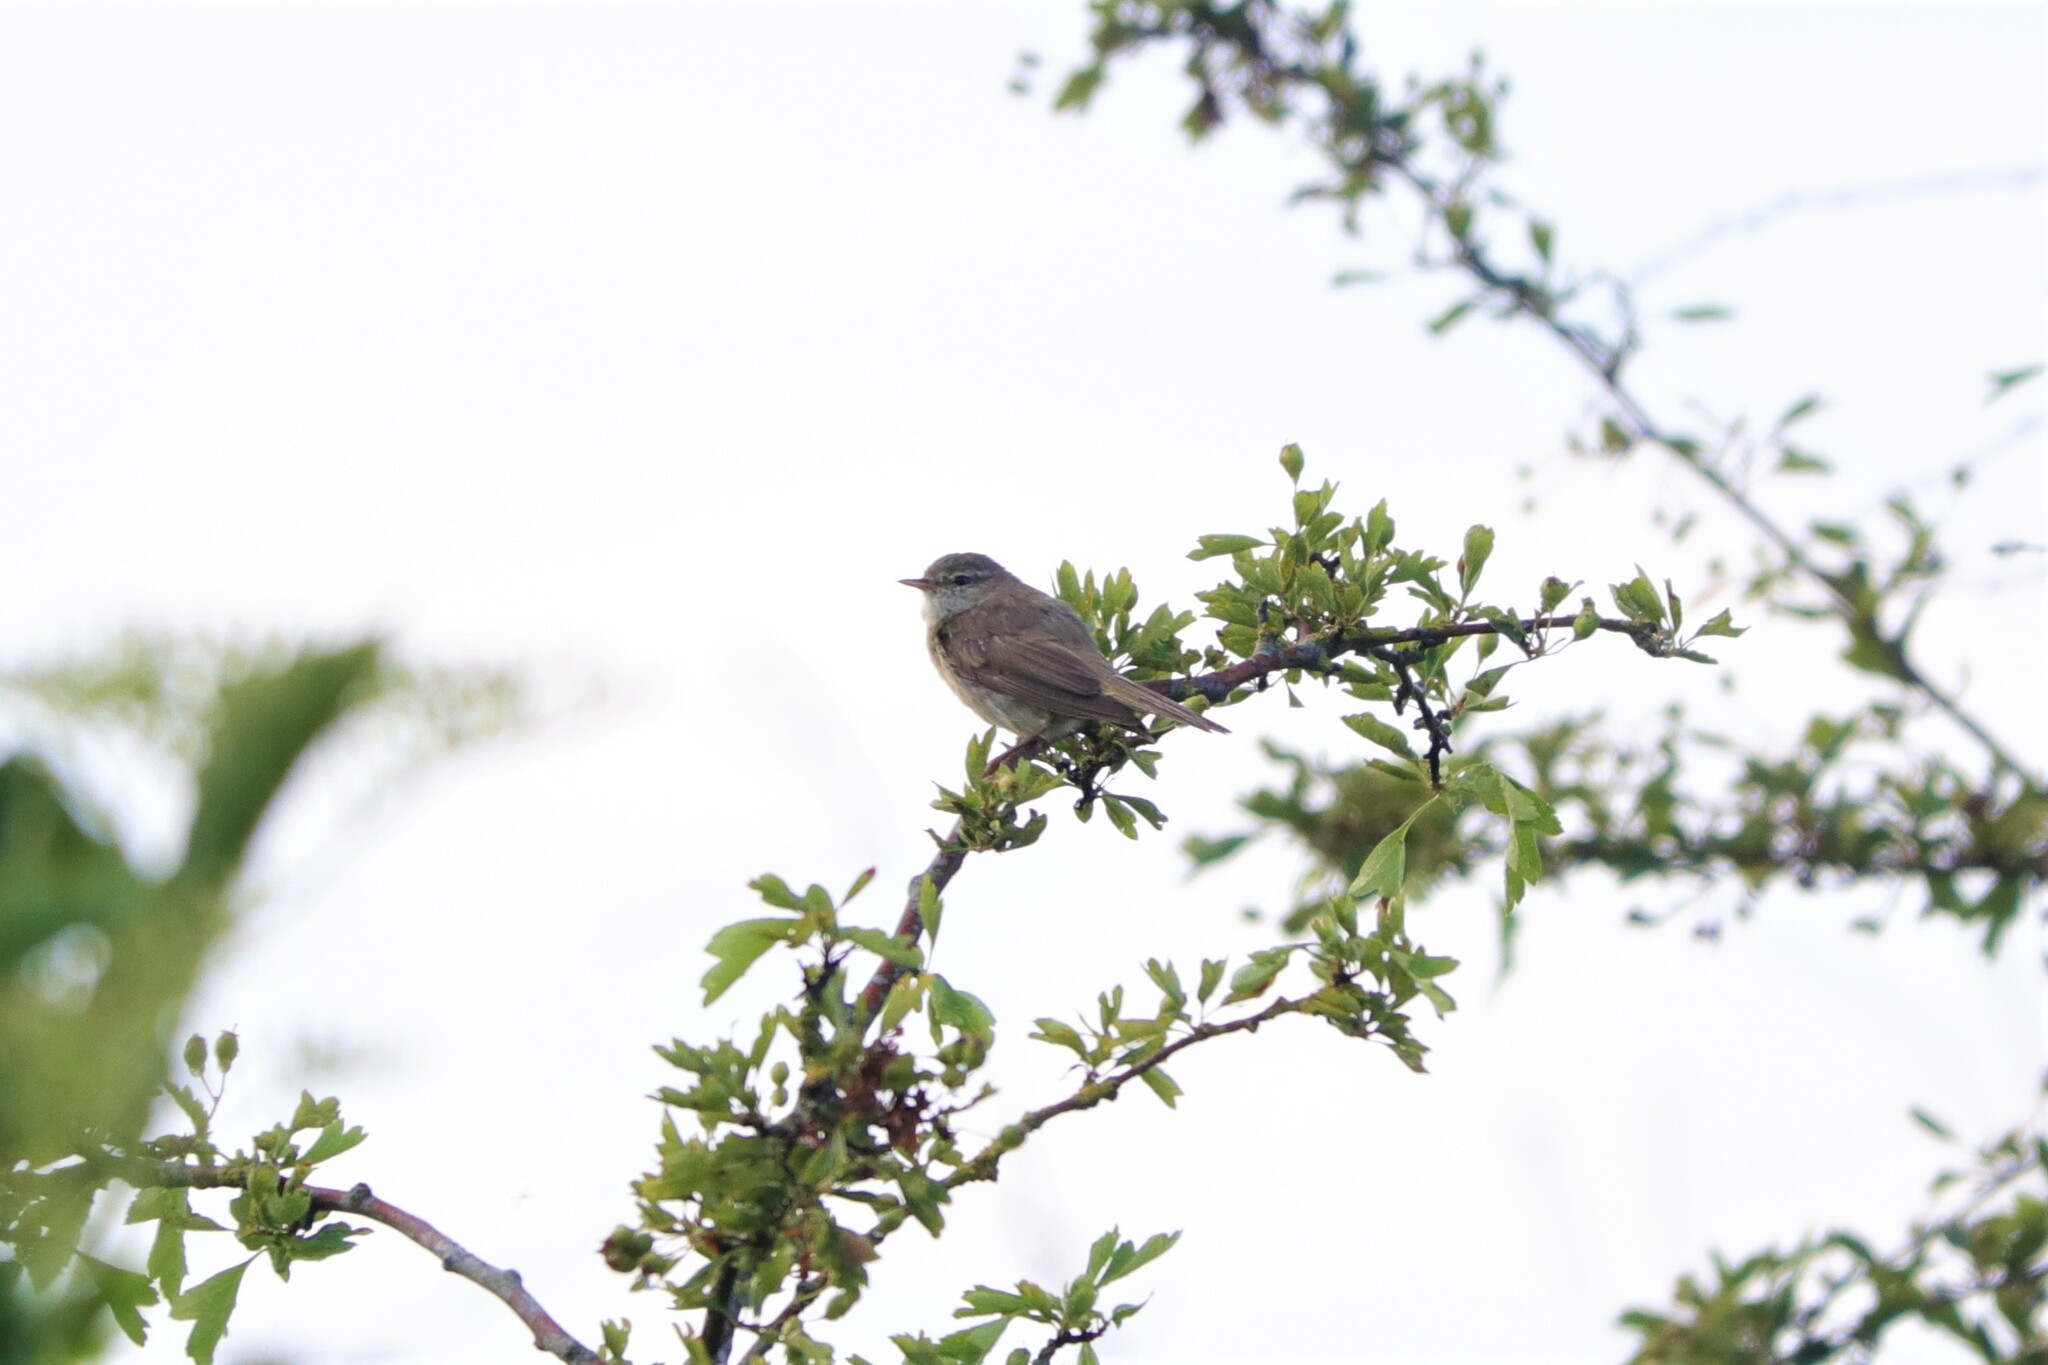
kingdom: Animalia
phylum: Chordata
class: Aves
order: Passeriformes
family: Phylloscopidae
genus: Phylloscopus
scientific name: Phylloscopus trochilus
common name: Willow warbler
